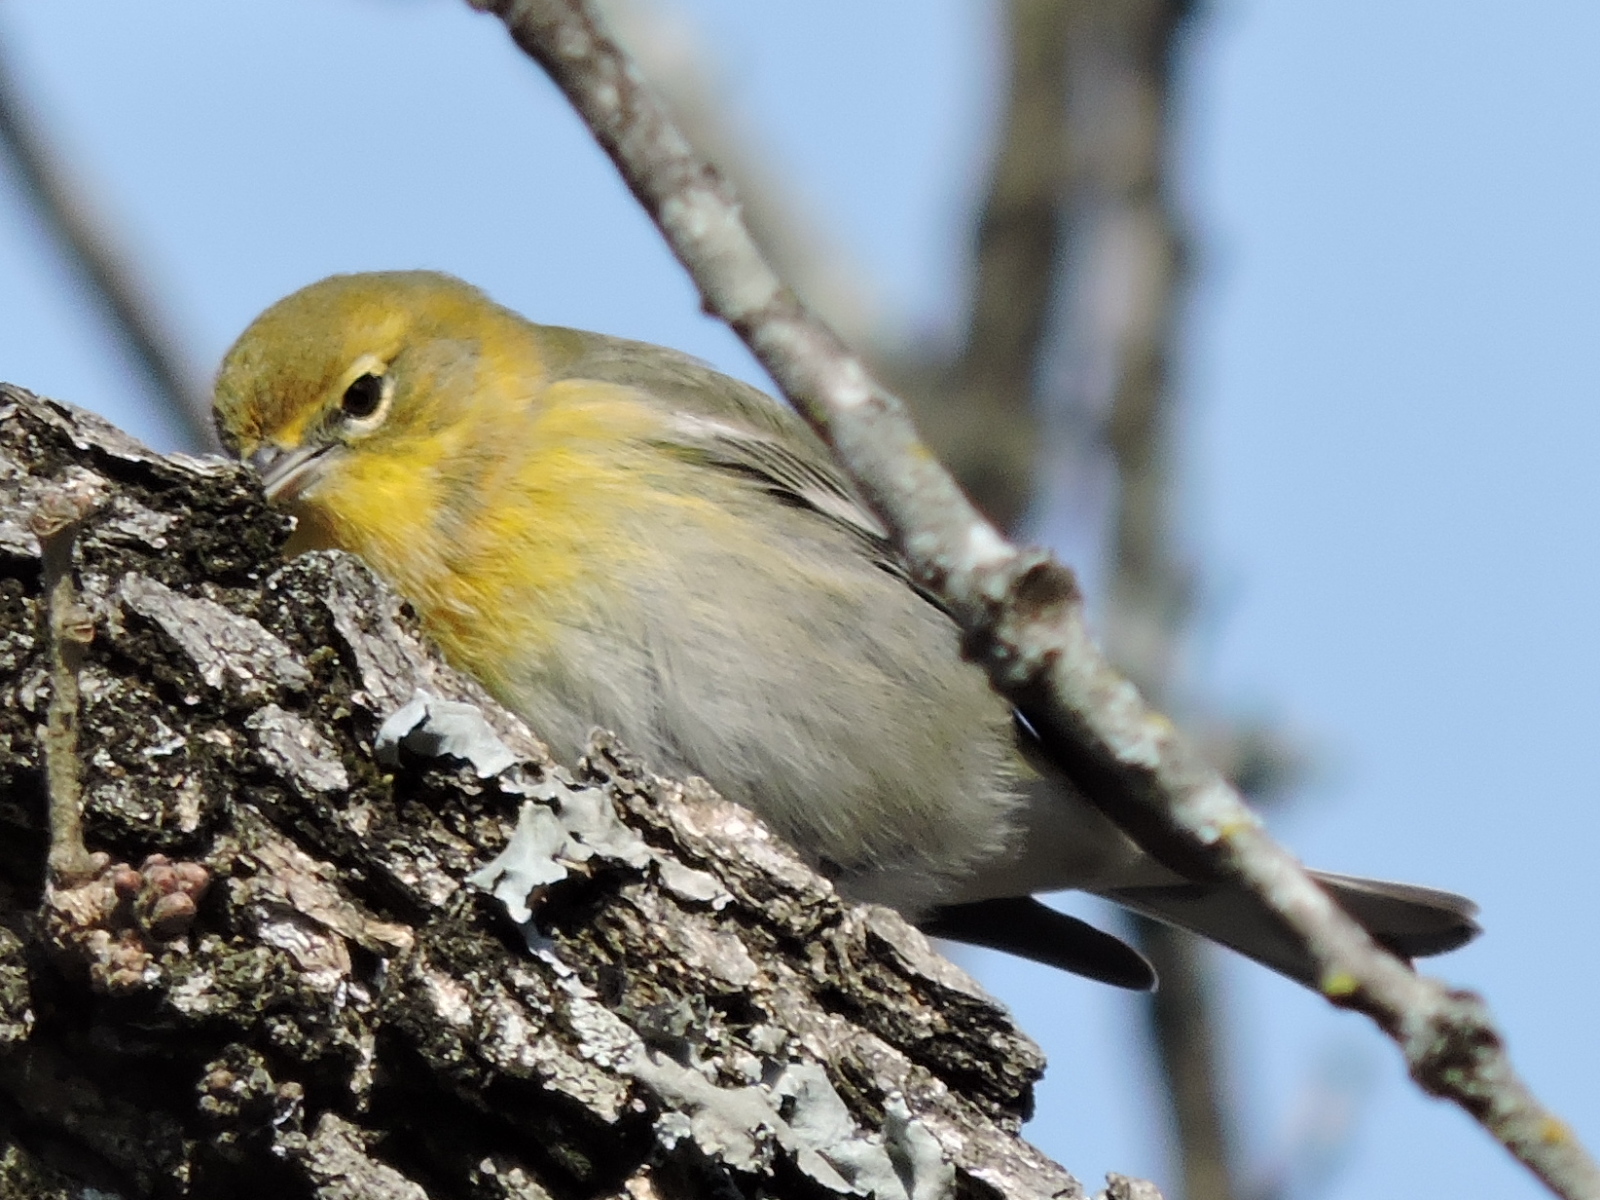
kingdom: Animalia
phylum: Chordata
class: Aves
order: Passeriformes
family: Parulidae
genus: Setophaga
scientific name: Setophaga pinus
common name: Pine warbler
